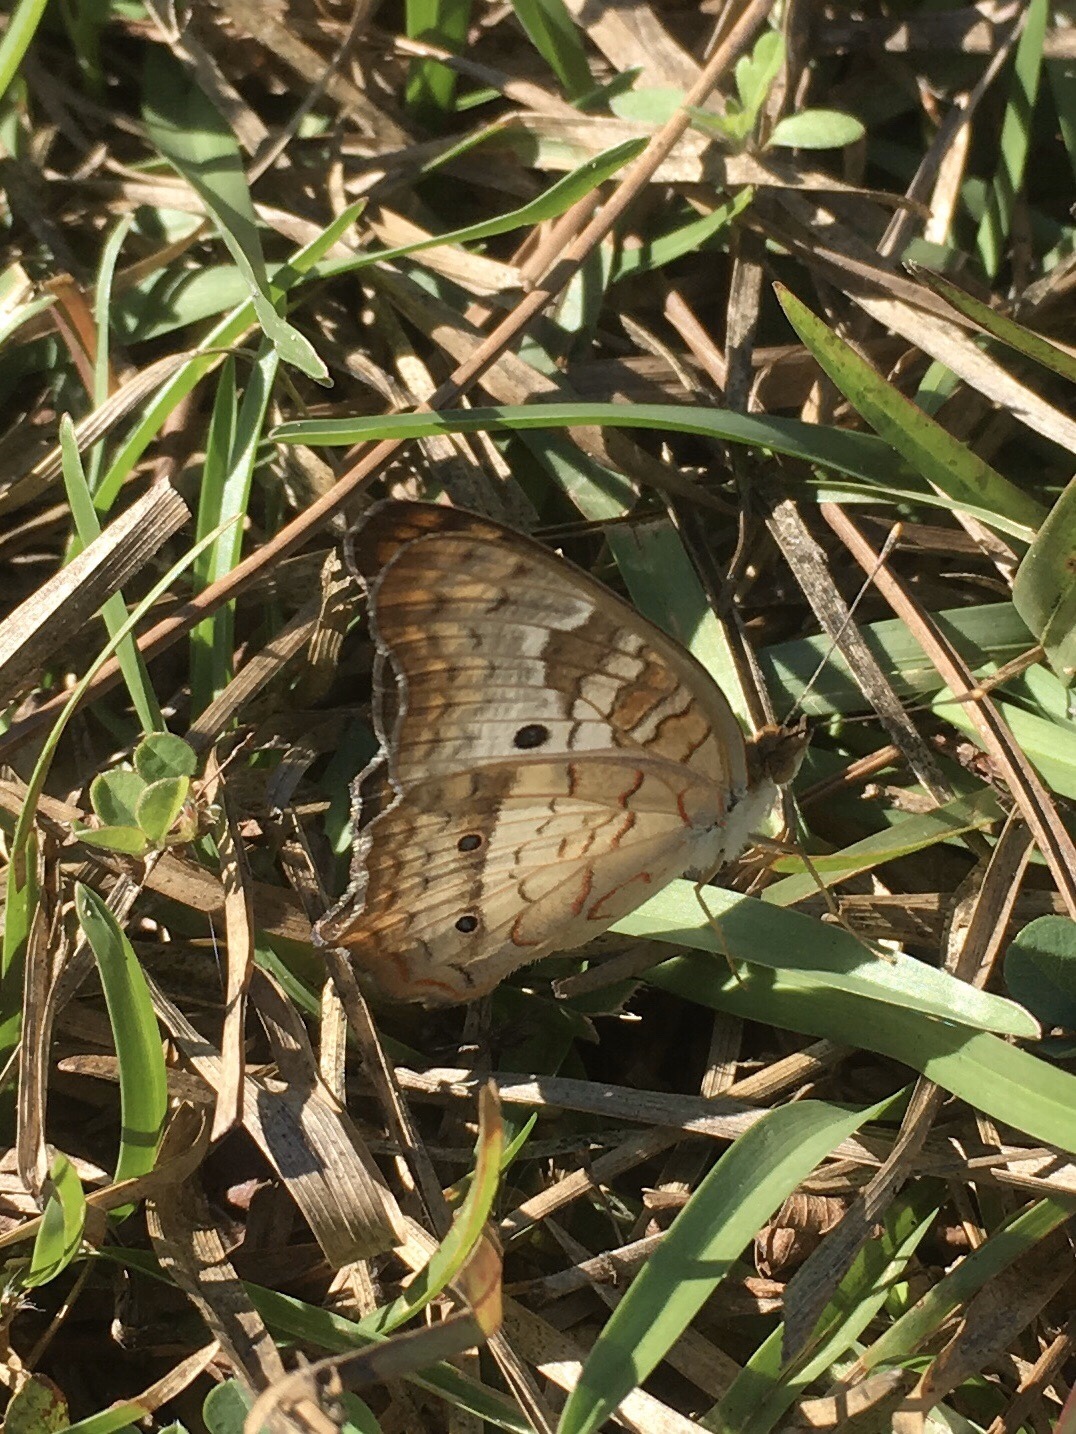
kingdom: Animalia
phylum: Arthropoda
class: Insecta
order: Lepidoptera
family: Nymphalidae
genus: Anartia
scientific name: Anartia jatrophae
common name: White peacock
